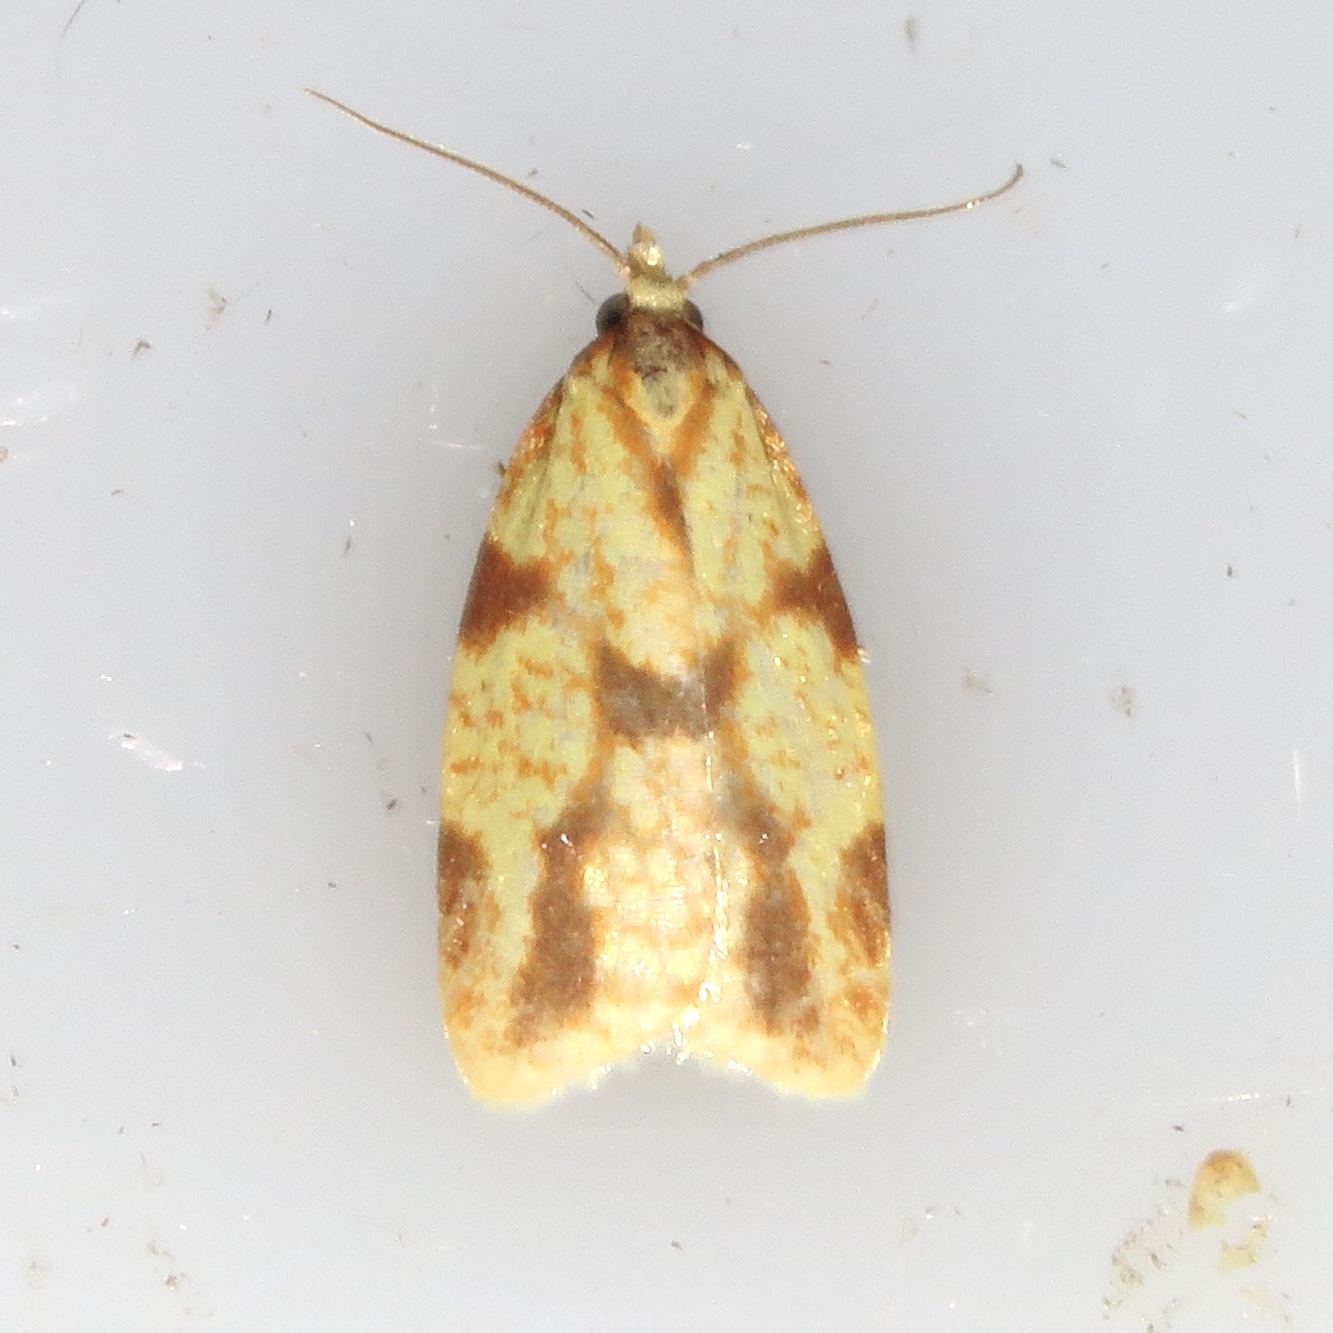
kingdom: Animalia
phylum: Arthropoda
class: Insecta
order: Lepidoptera
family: Tortricidae
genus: Sparganothis
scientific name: Sparganothis sulfureana
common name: Sparganothis fruitworm moth
